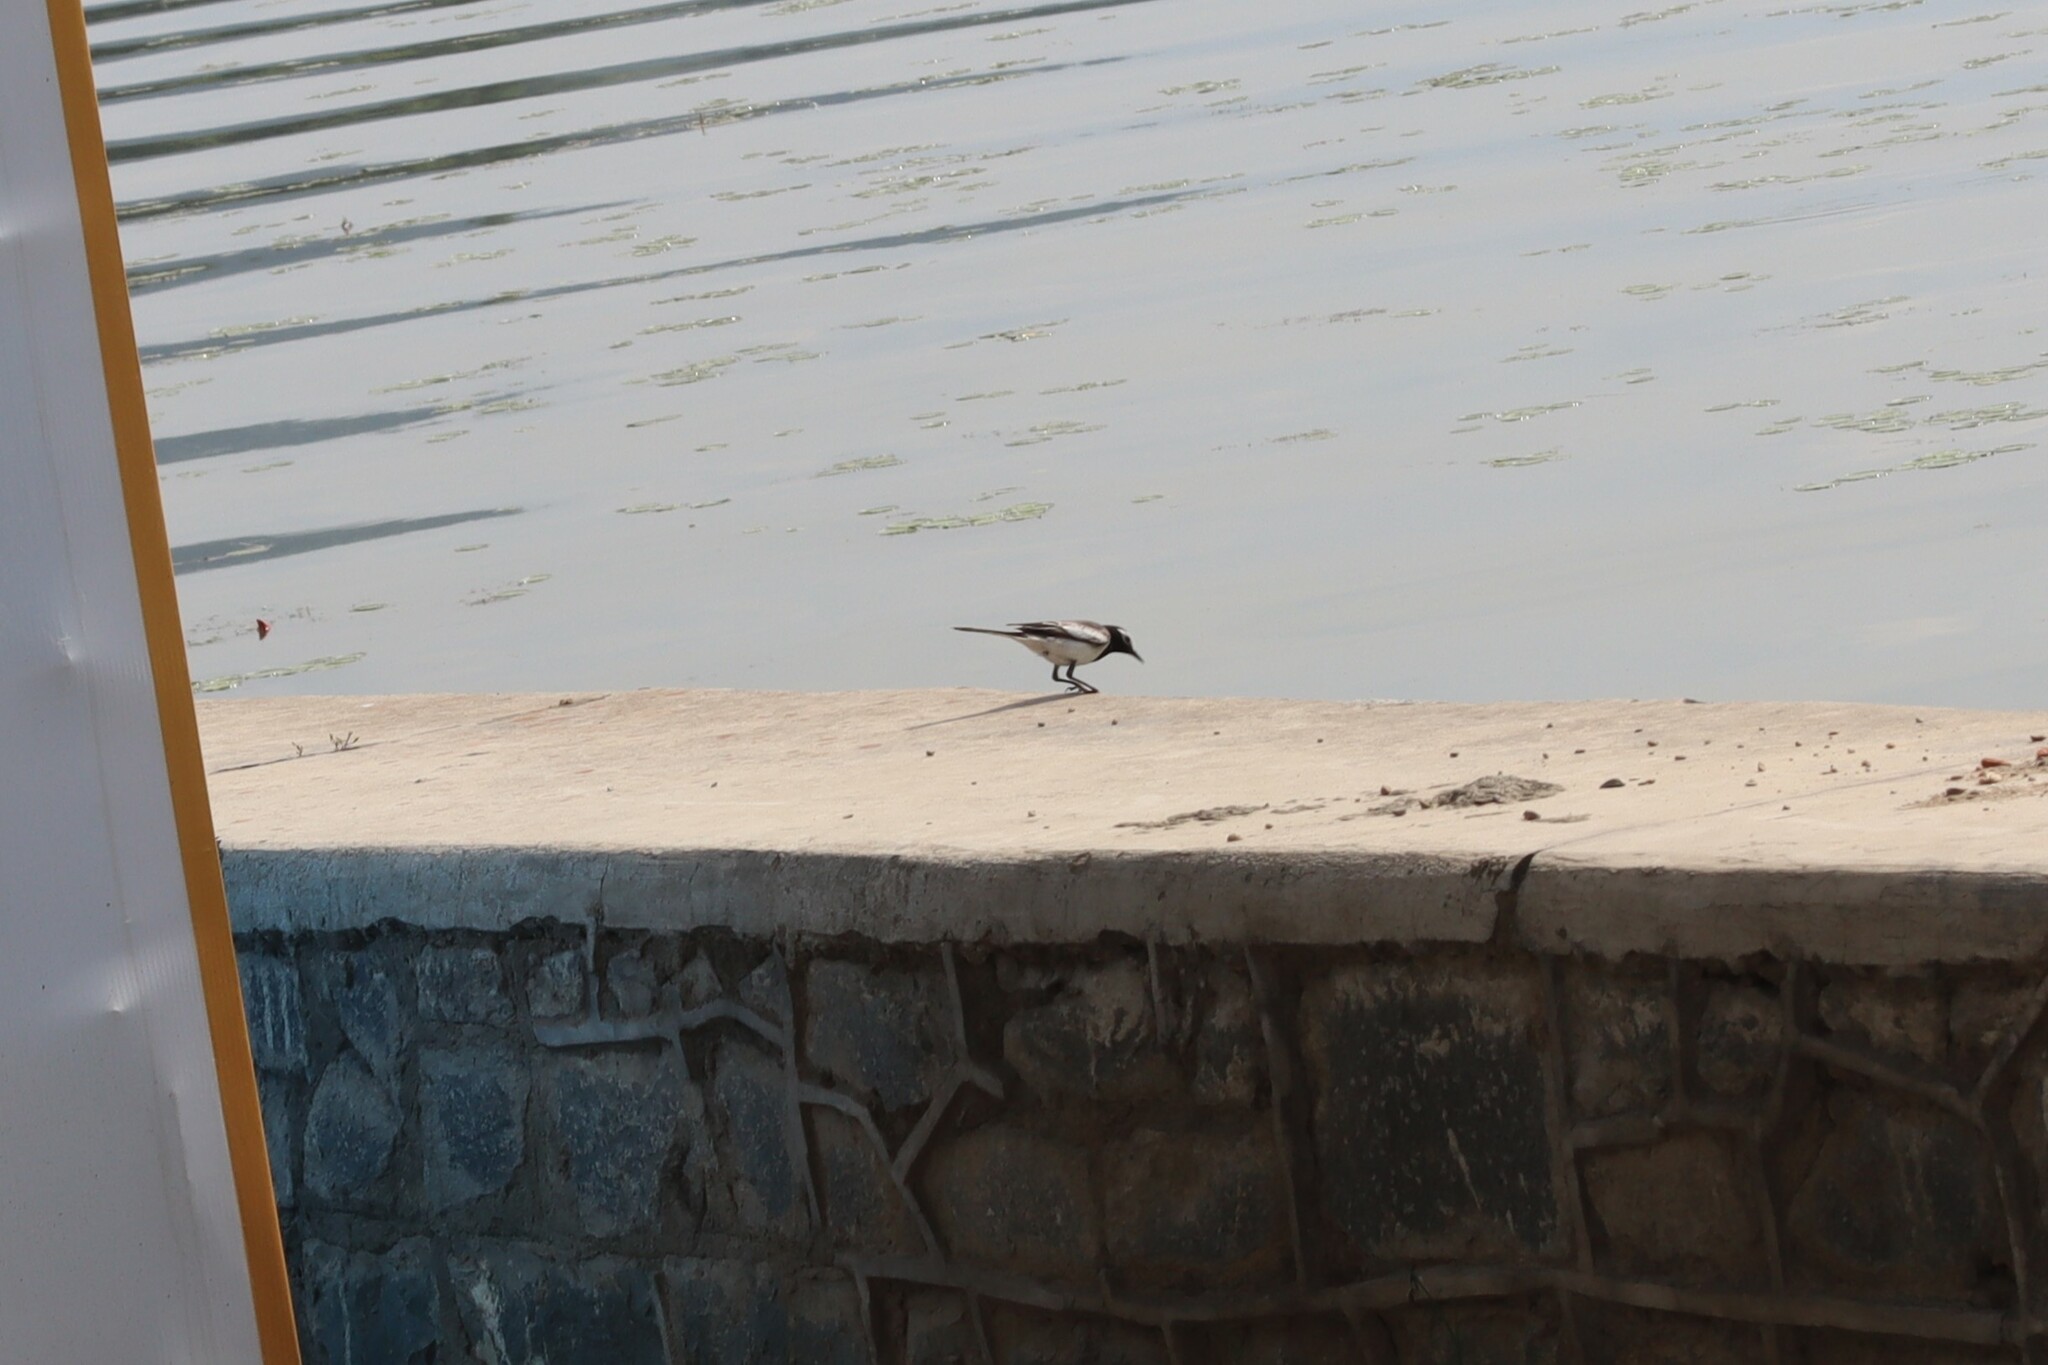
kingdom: Animalia
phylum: Chordata
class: Aves
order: Passeriformes
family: Motacillidae
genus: Motacilla
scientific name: Motacilla maderaspatensis
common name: White-browed wagtail
